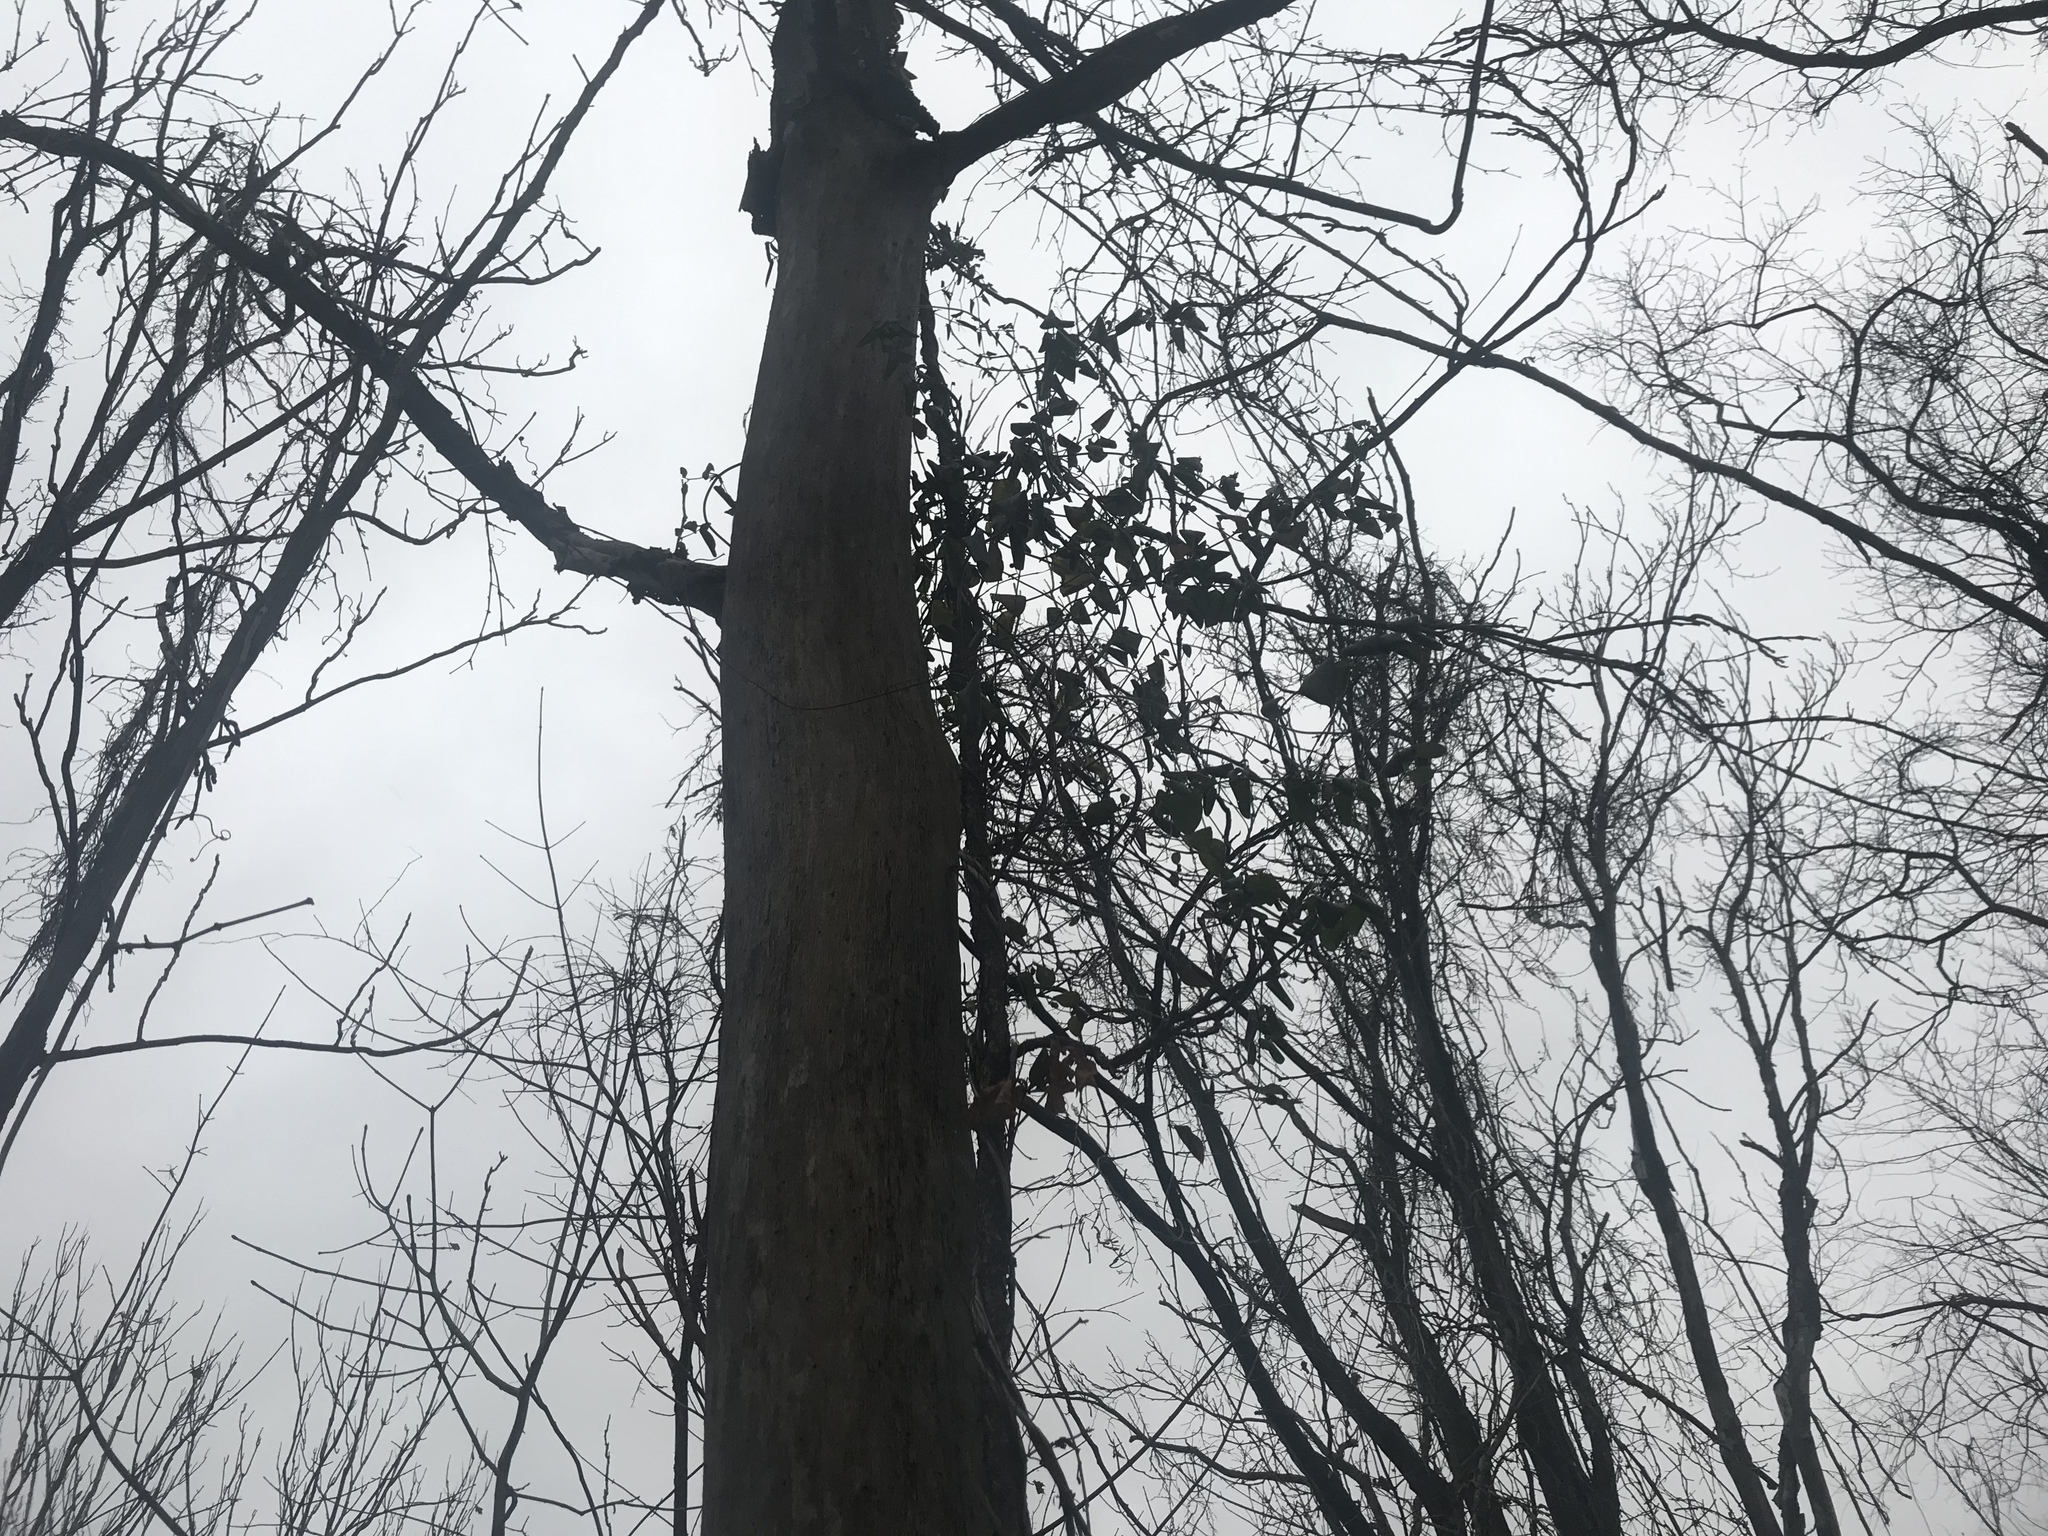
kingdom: Plantae
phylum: Tracheophyta
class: Magnoliopsida
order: Dipsacales
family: Caprifoliaceae
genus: Lonicera
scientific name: Lonicera japonica
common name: Japanese honeysuckle
